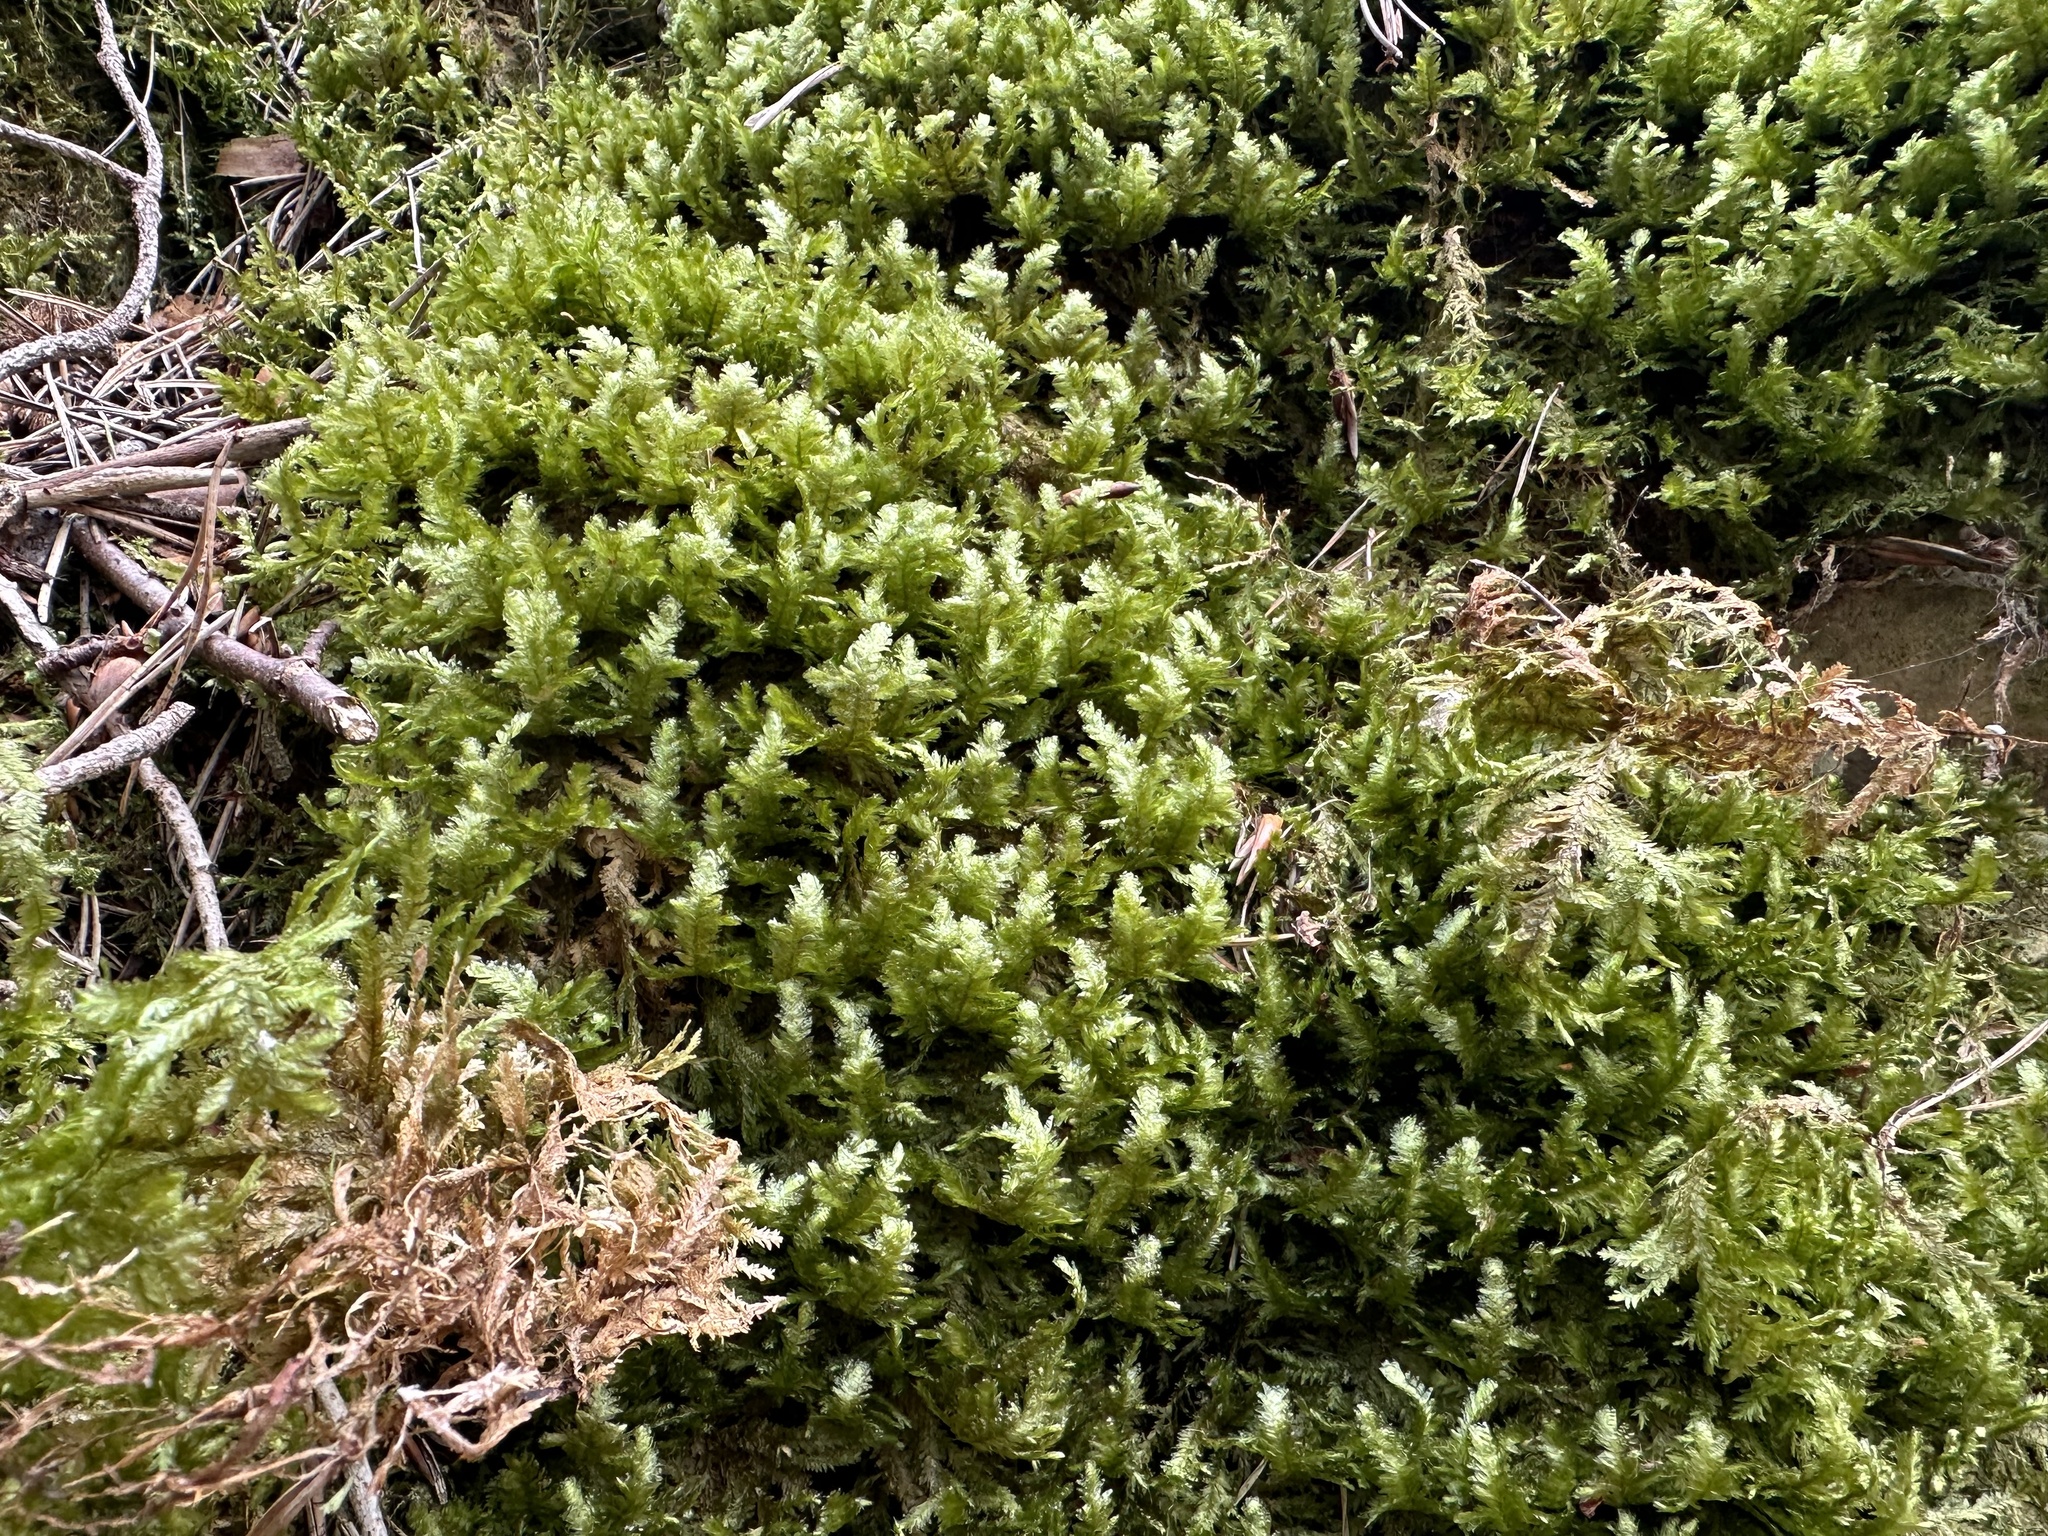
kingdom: Plantae
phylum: Bryophyta
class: Bryopsida
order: Hypnales
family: Neckeraceae
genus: Exsertotheca
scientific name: Exsertotheca crispa
